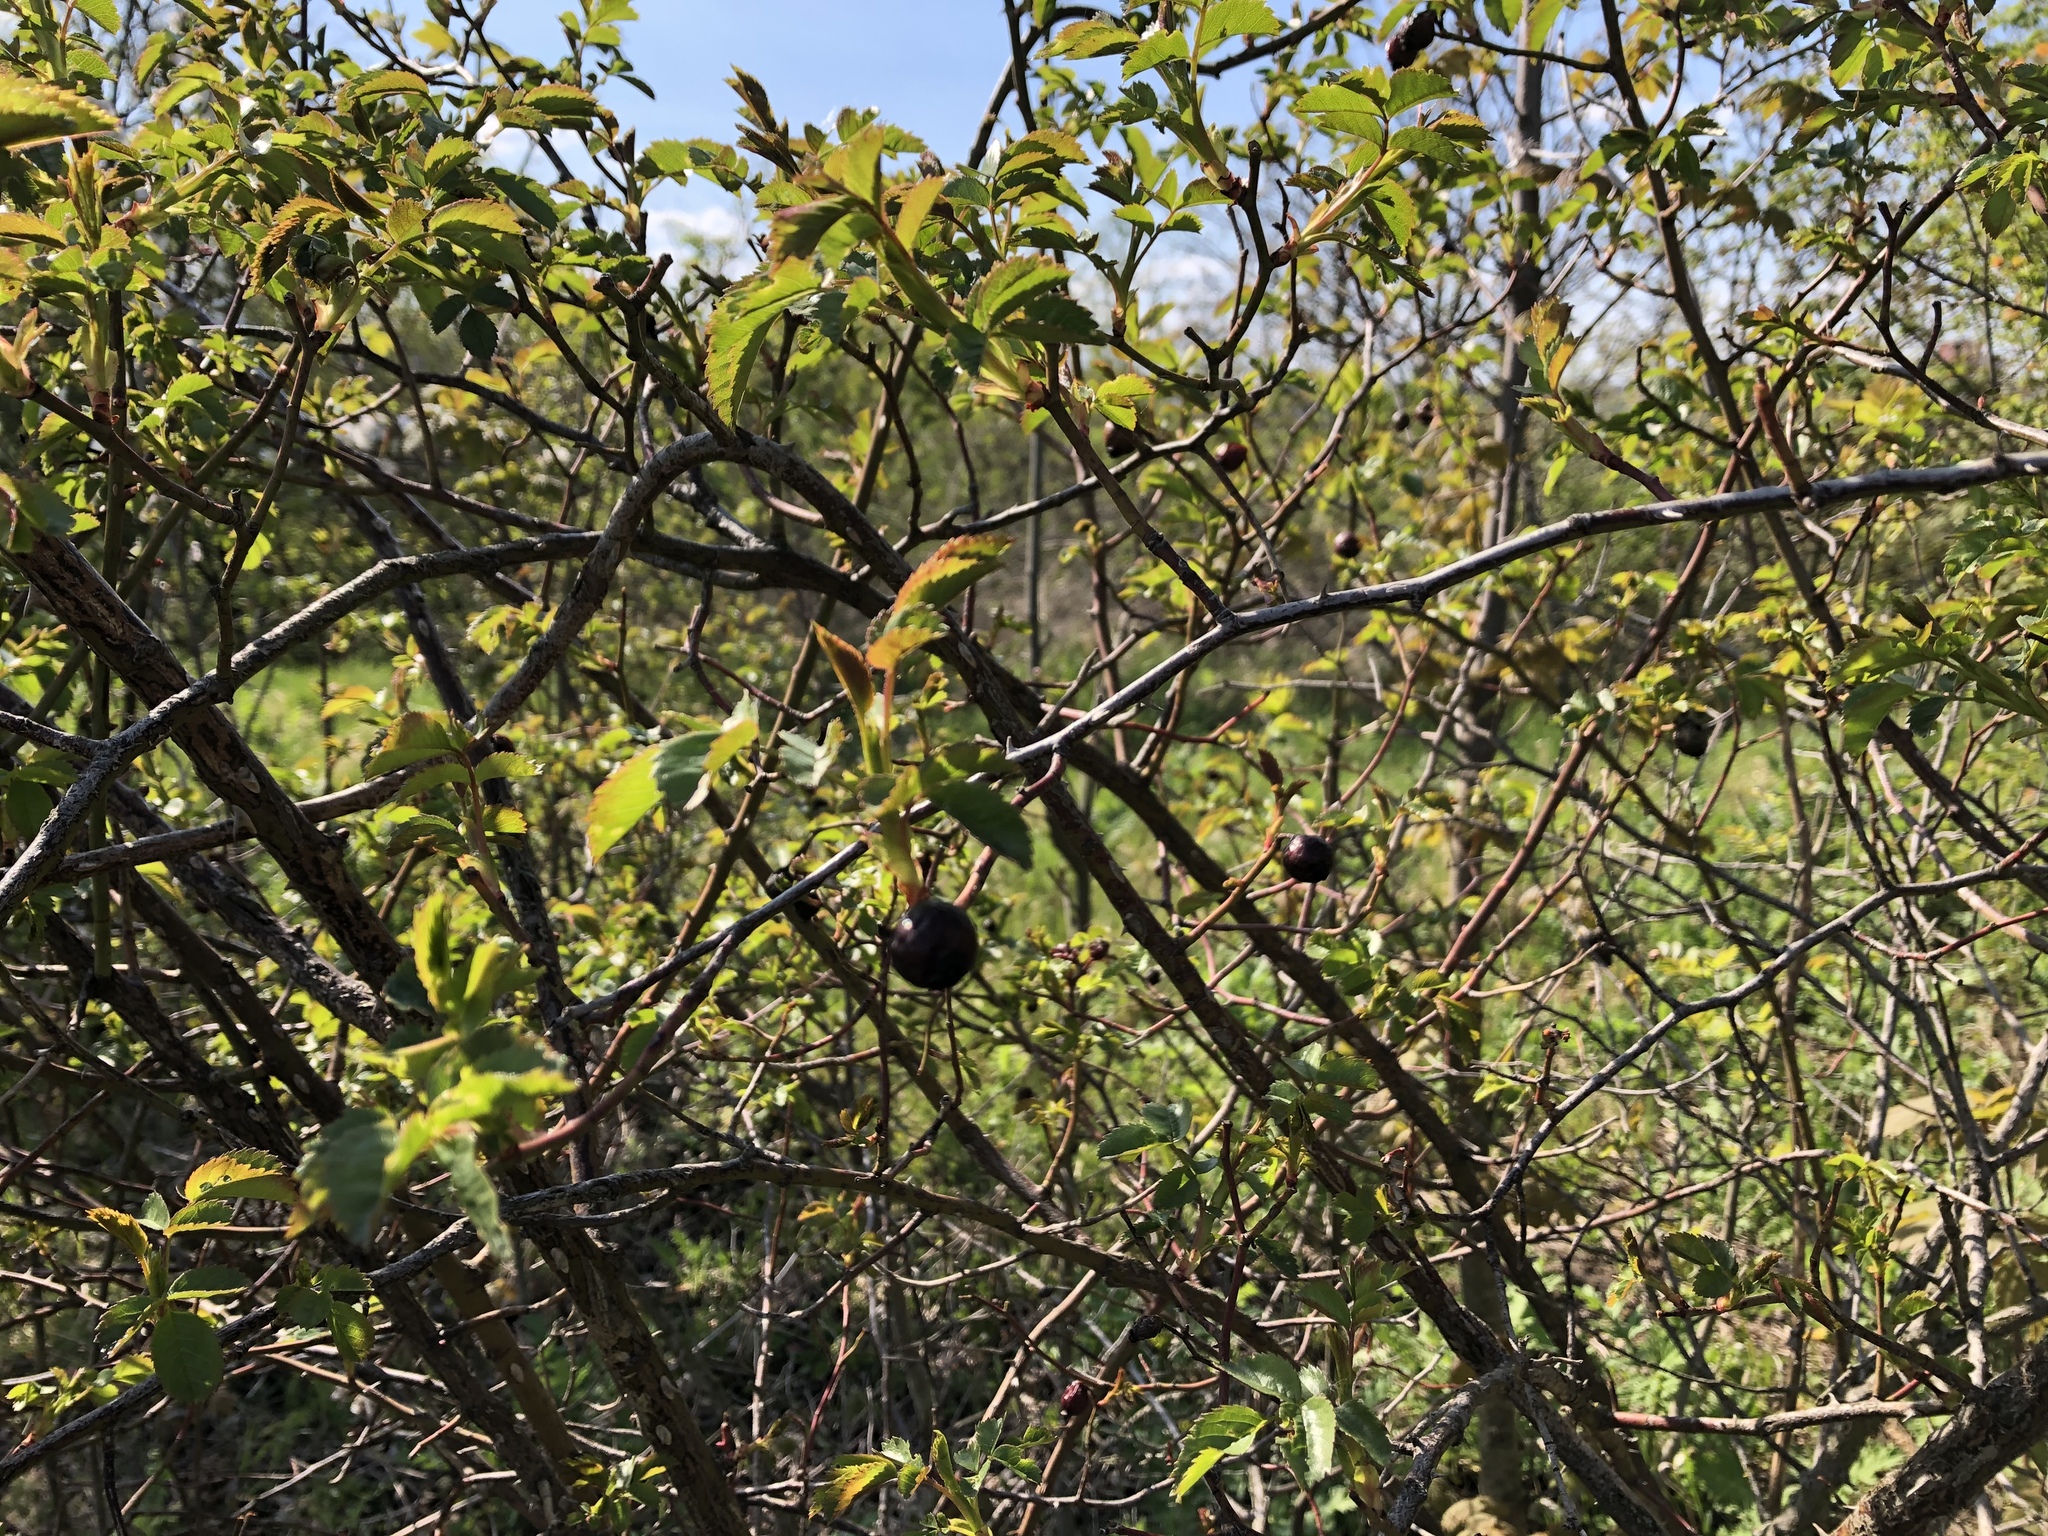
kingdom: Plantae
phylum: Tracheophyta
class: Magnoliopsida
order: Rosales
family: Rosaceae
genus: Rosa
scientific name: Rosa canina
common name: Dog rose
